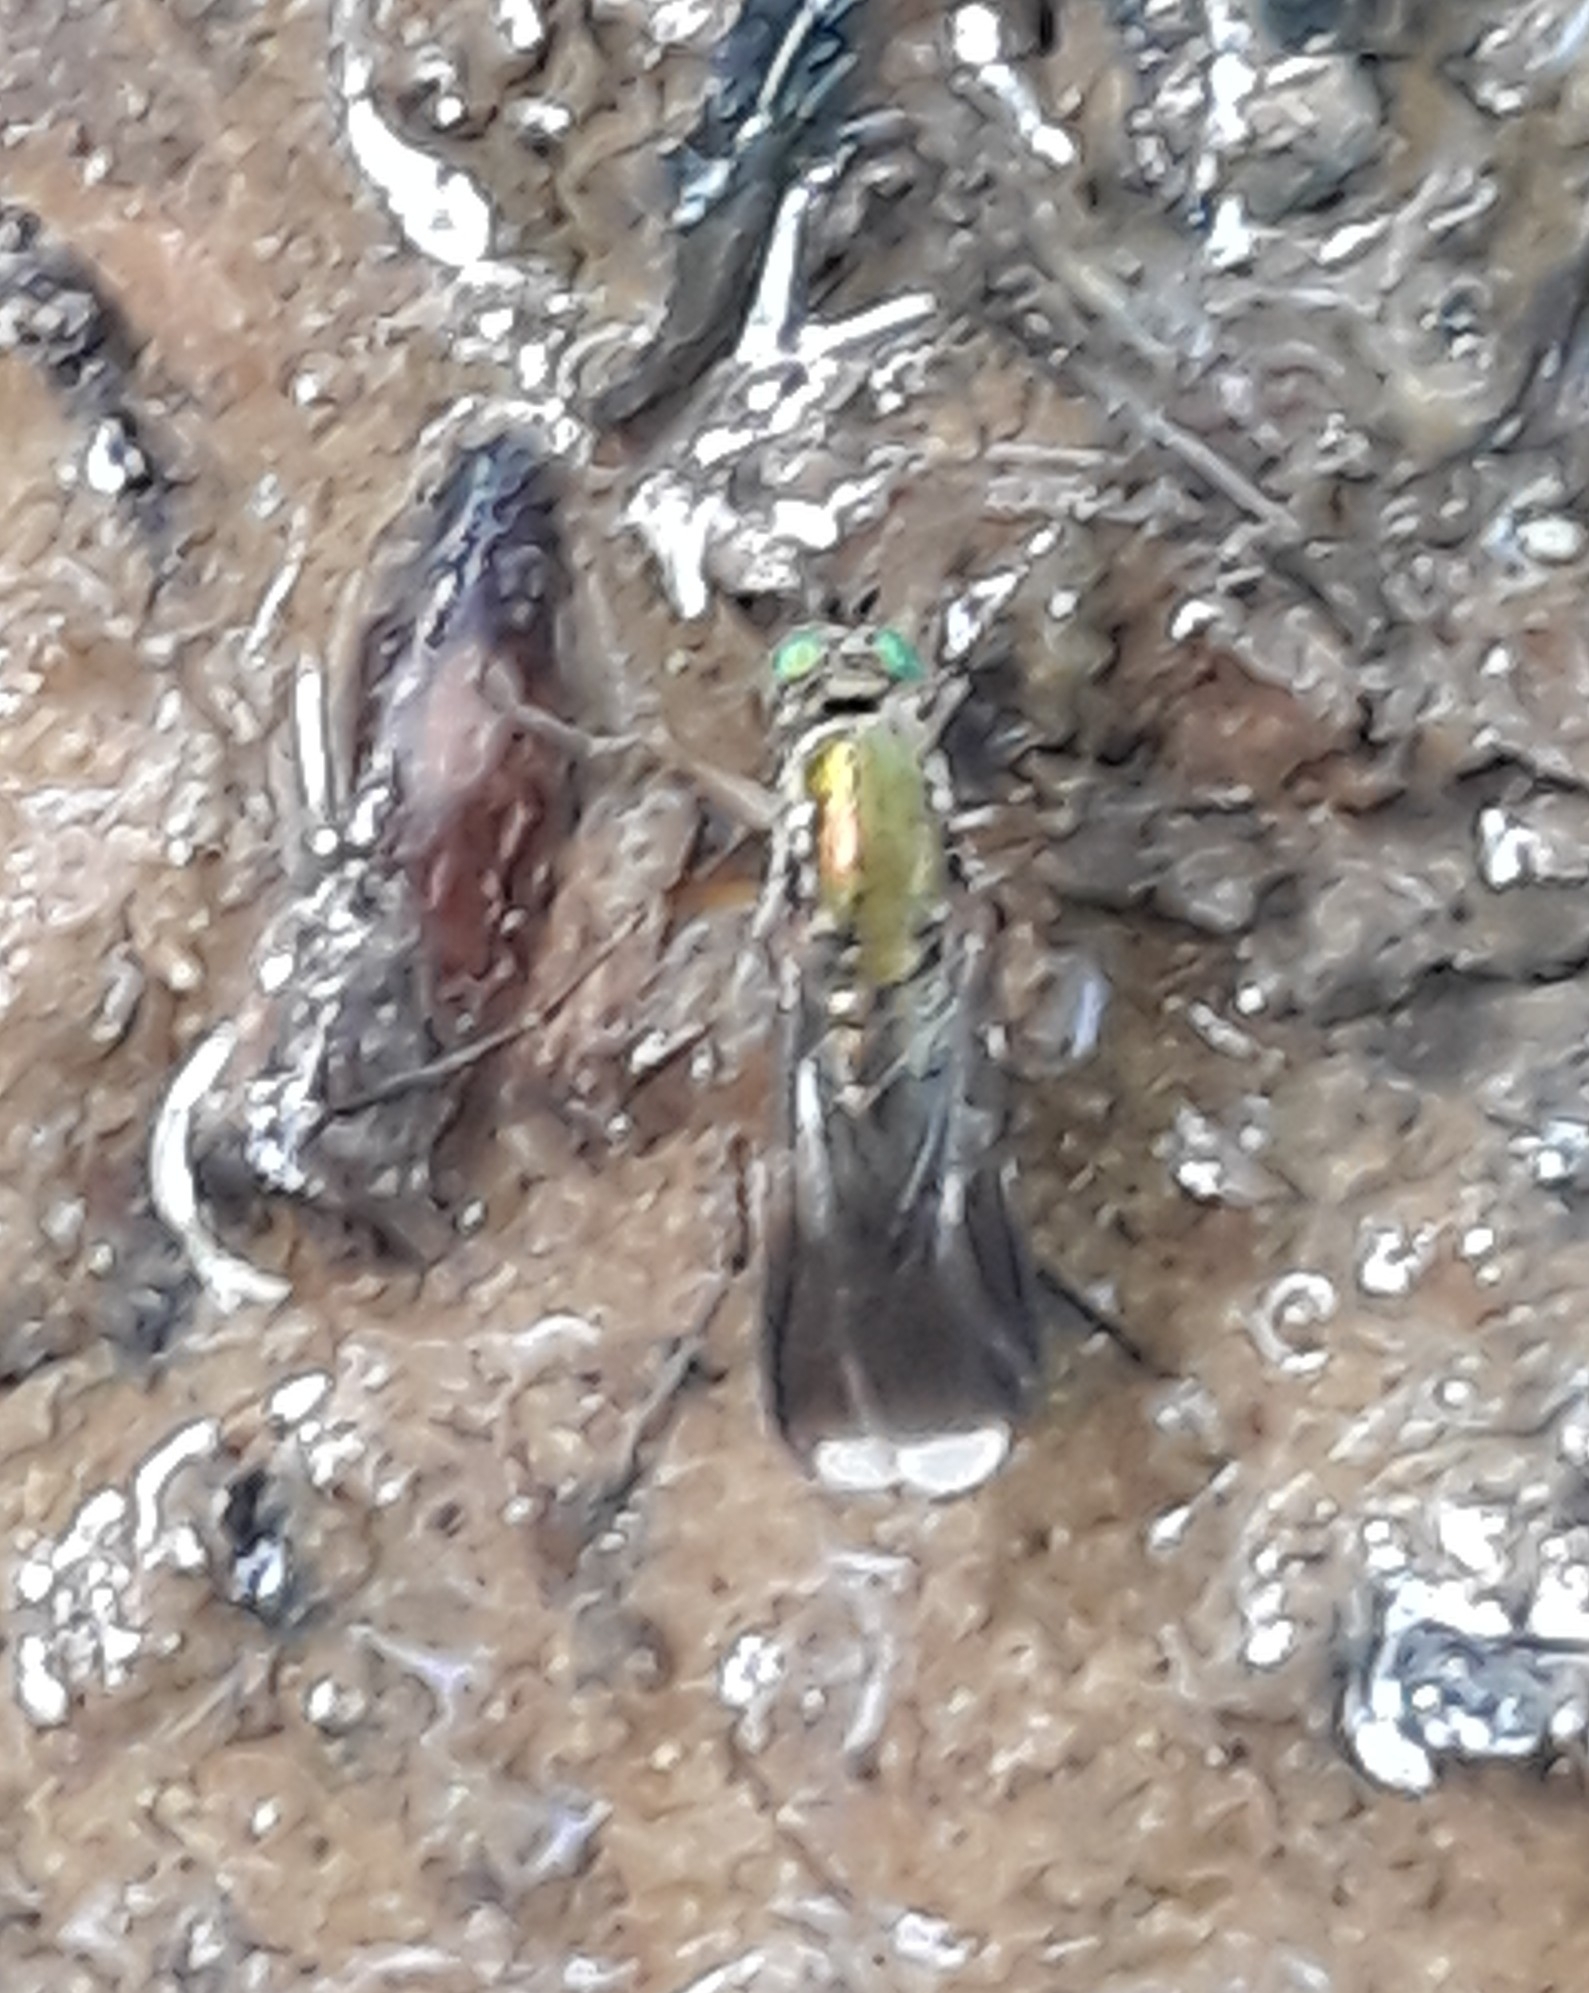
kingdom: Animalia
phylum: Arthropoda
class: Insecta
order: Diptera
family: Dolichopodidae
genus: Poecilobothrus
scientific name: Poecilobothrus nobilitatus
